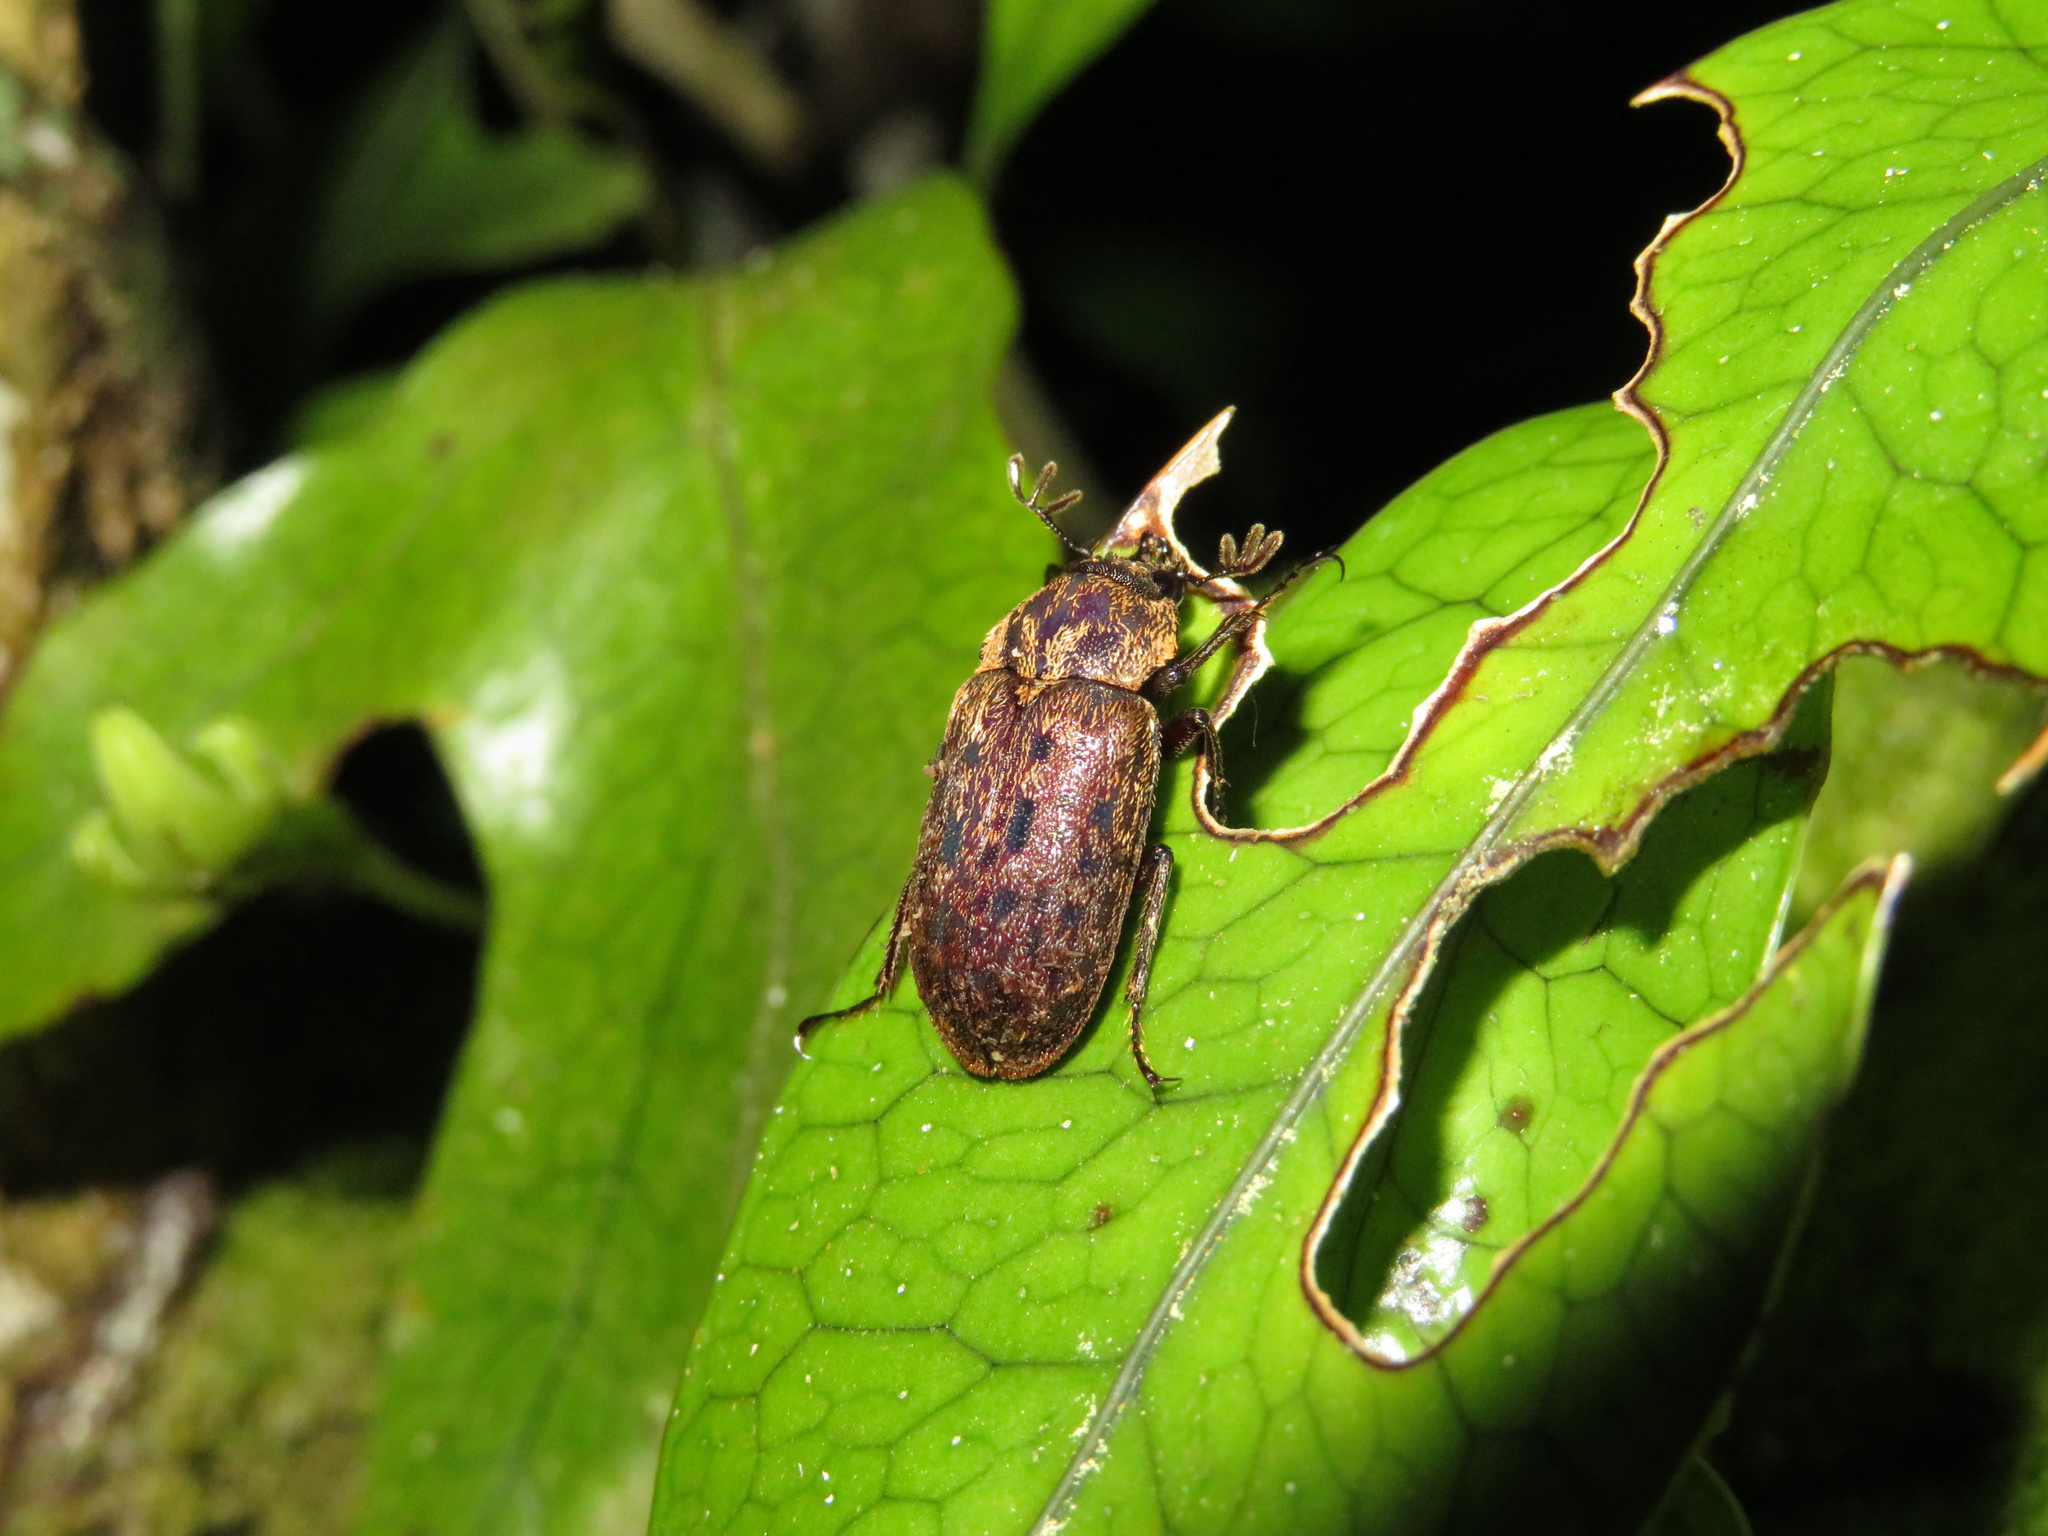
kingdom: Animalia
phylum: Arthropoda
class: Insecta
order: Coleoptera
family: Lucanidae
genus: Mitophyllus
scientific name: Mitophyllus parrianus
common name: Parry's stag beetle
